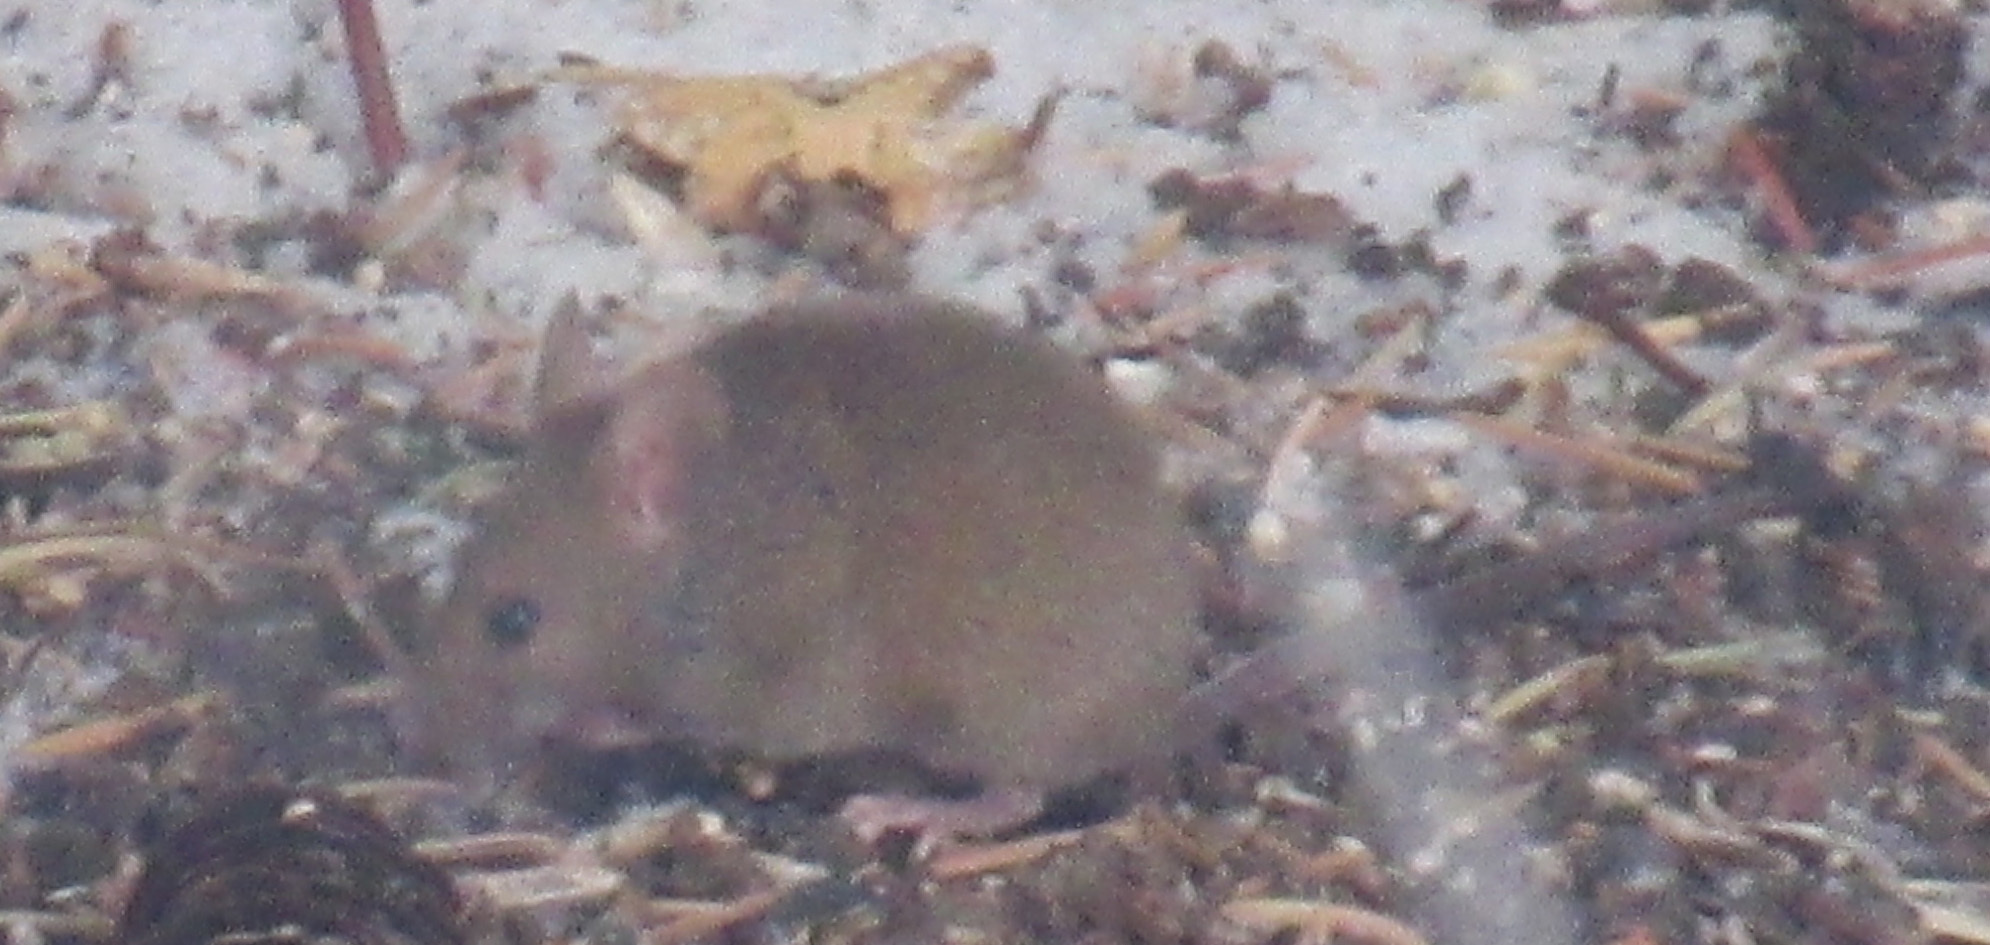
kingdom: Animalia
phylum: Chordata
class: Mammalia
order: Rodentia
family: Muridae
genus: Mus
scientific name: Mus musculus
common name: House mouse
